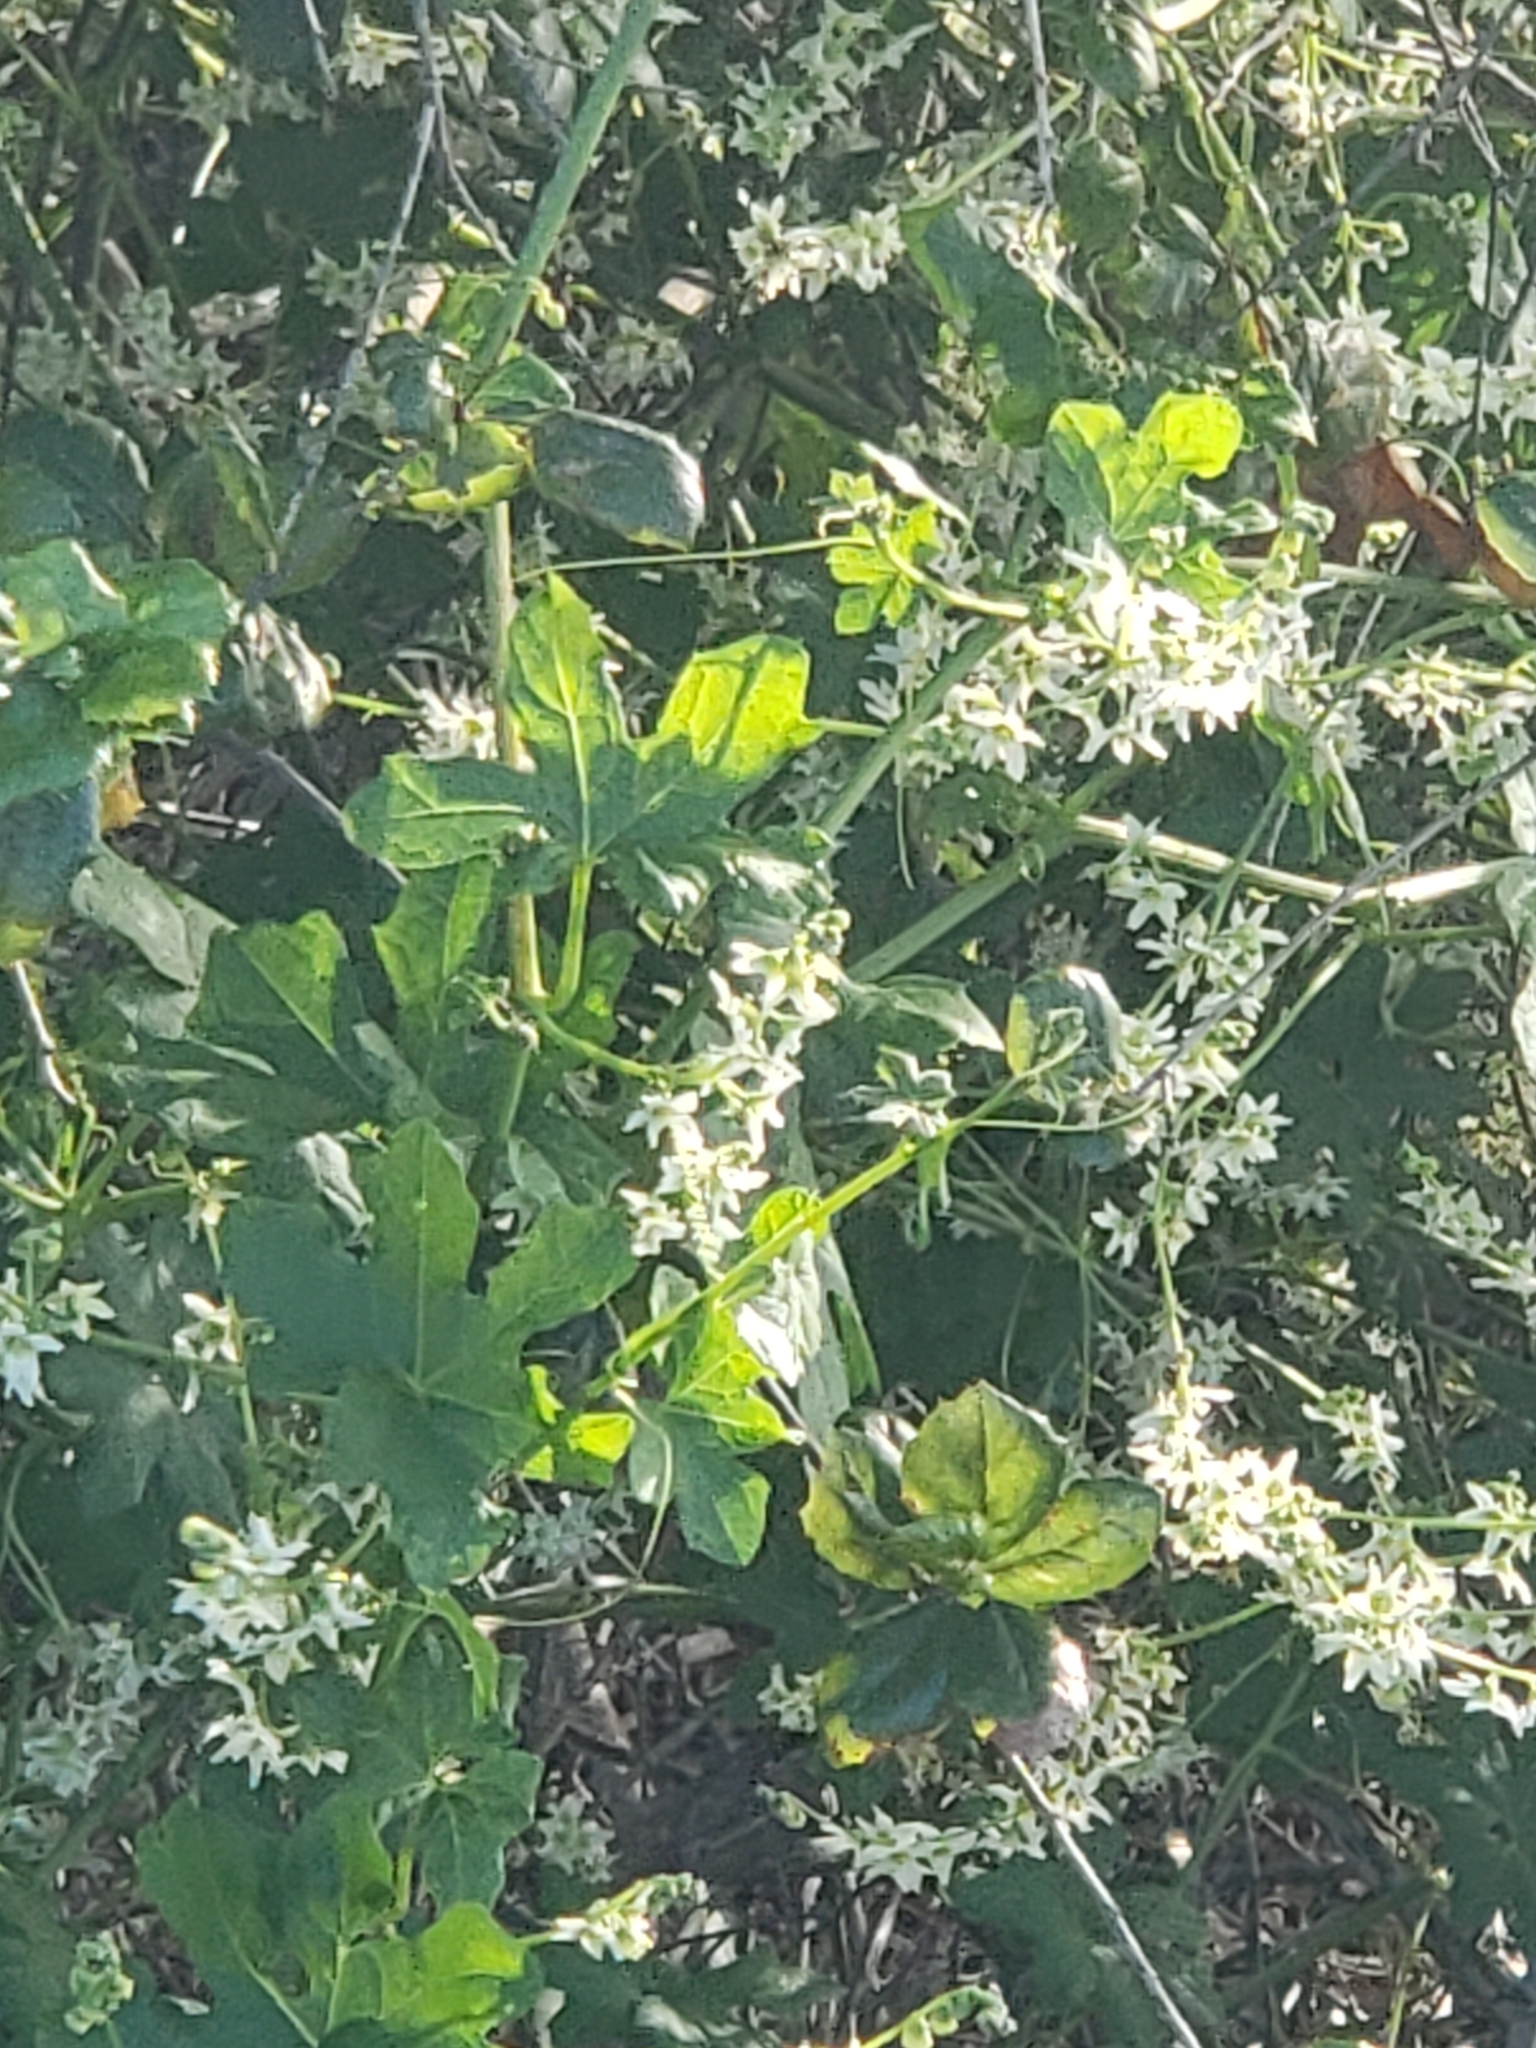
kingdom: Plantae
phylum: Tracheophyta
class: Magnoliopsida
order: Cucurbitales
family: Cucurbitaceae
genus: Marah
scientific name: Marah macrocarpa
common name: Cucamonga manroot
